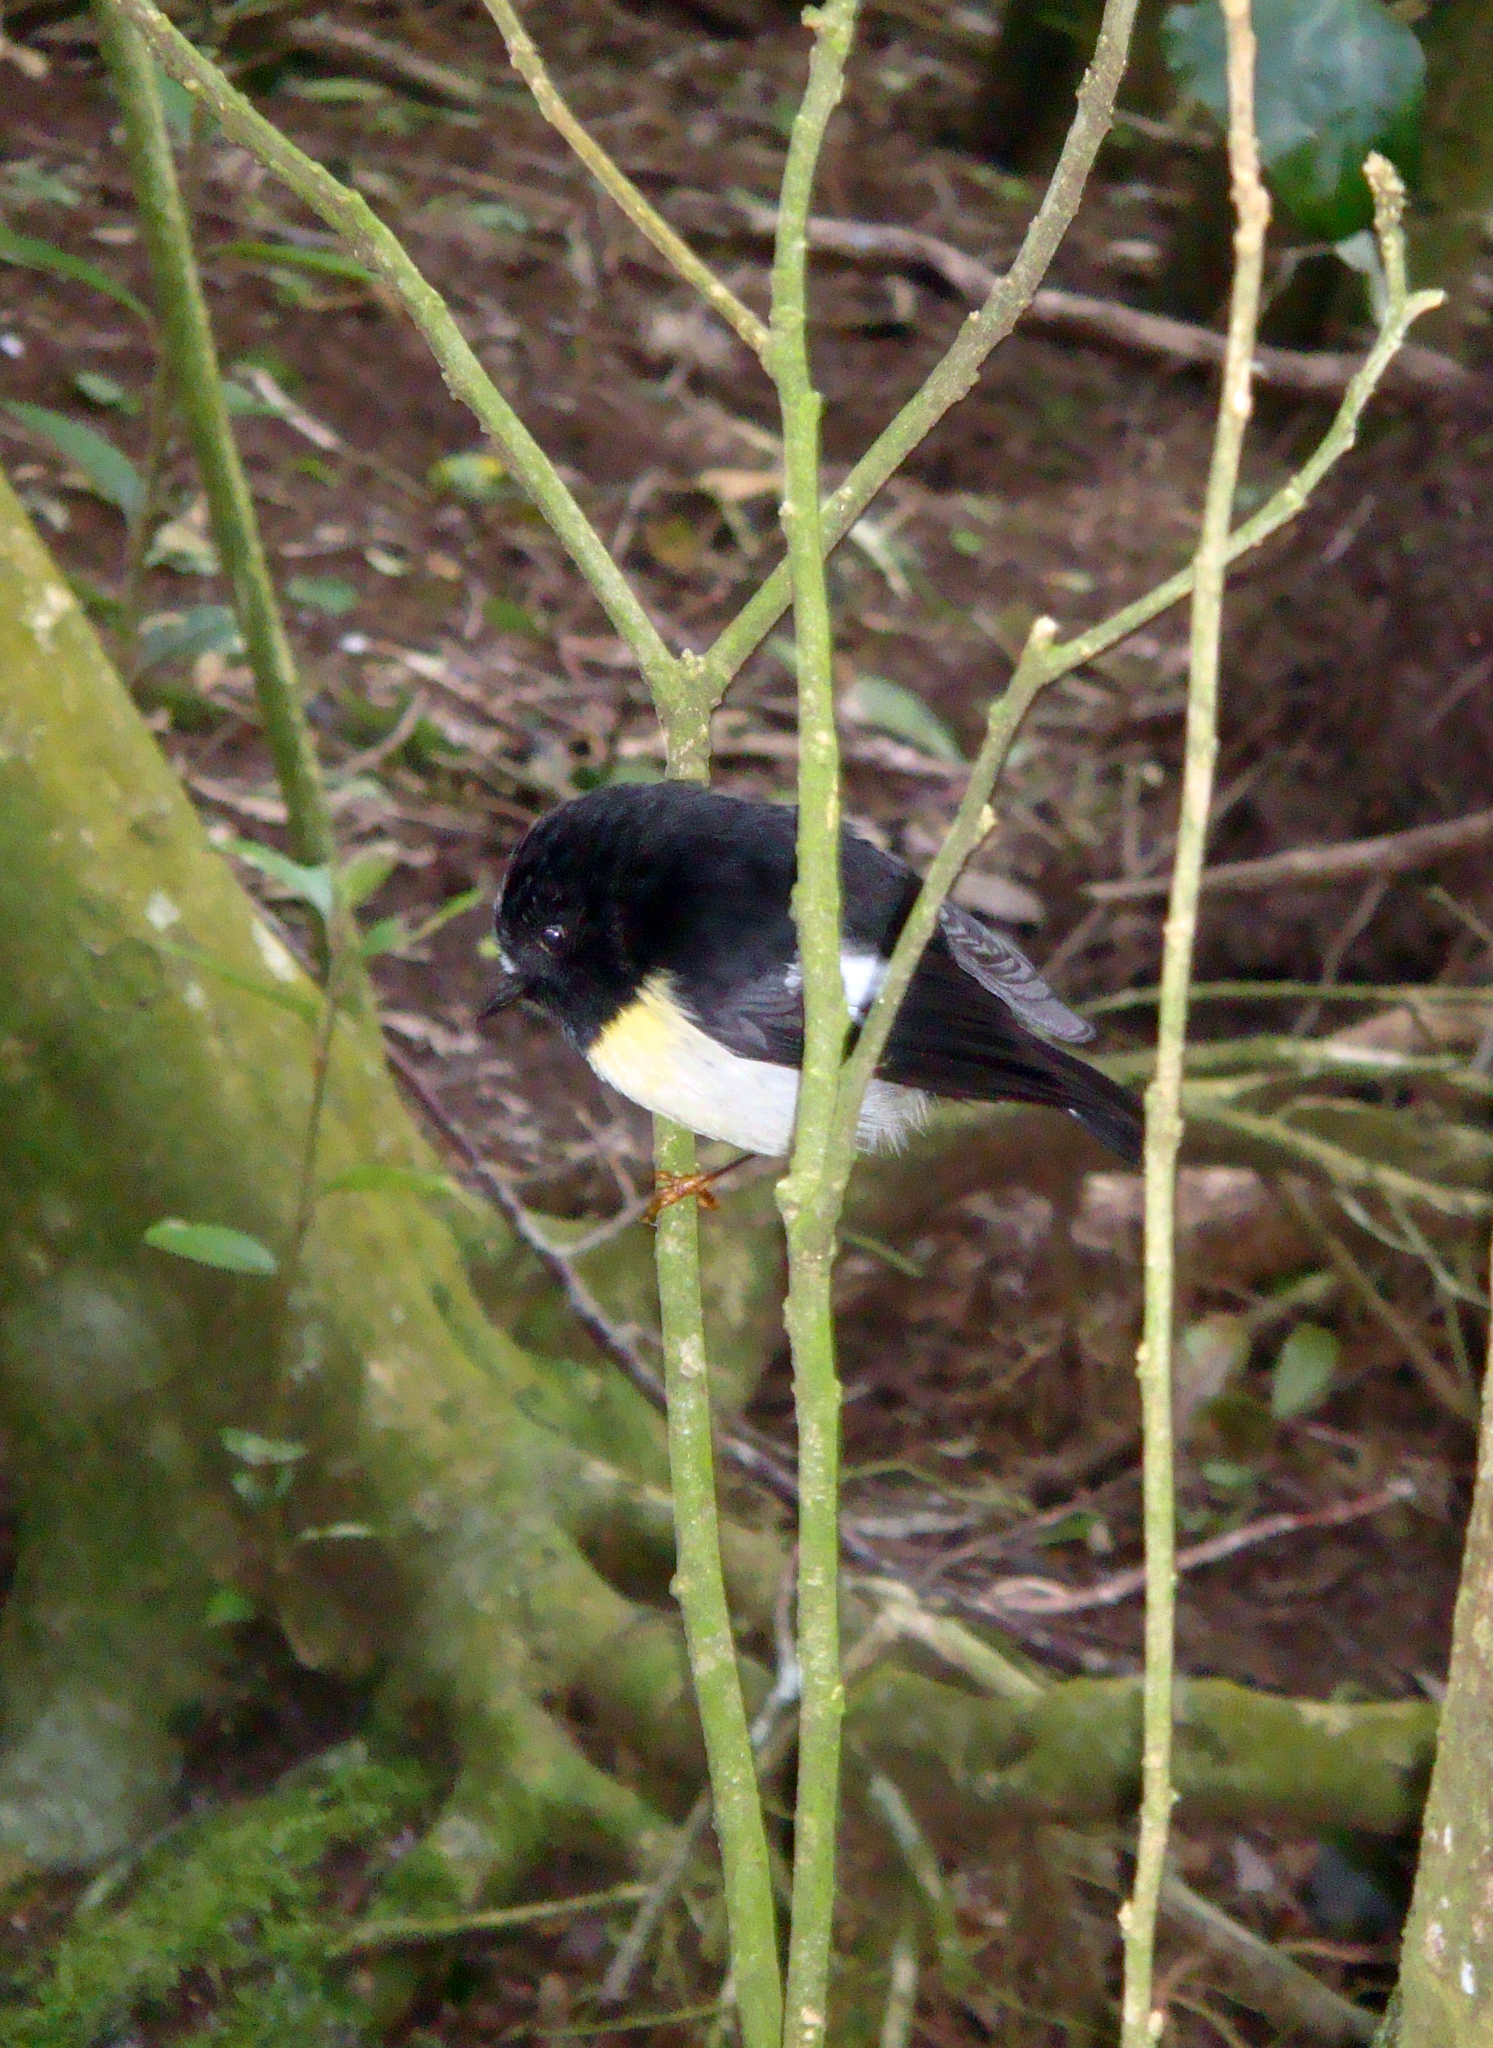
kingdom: Animalia
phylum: Chordata
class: Aves
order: Passeriformes
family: Petroicidae
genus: Petroica
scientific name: Petroica macrocephala
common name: Tomtit
